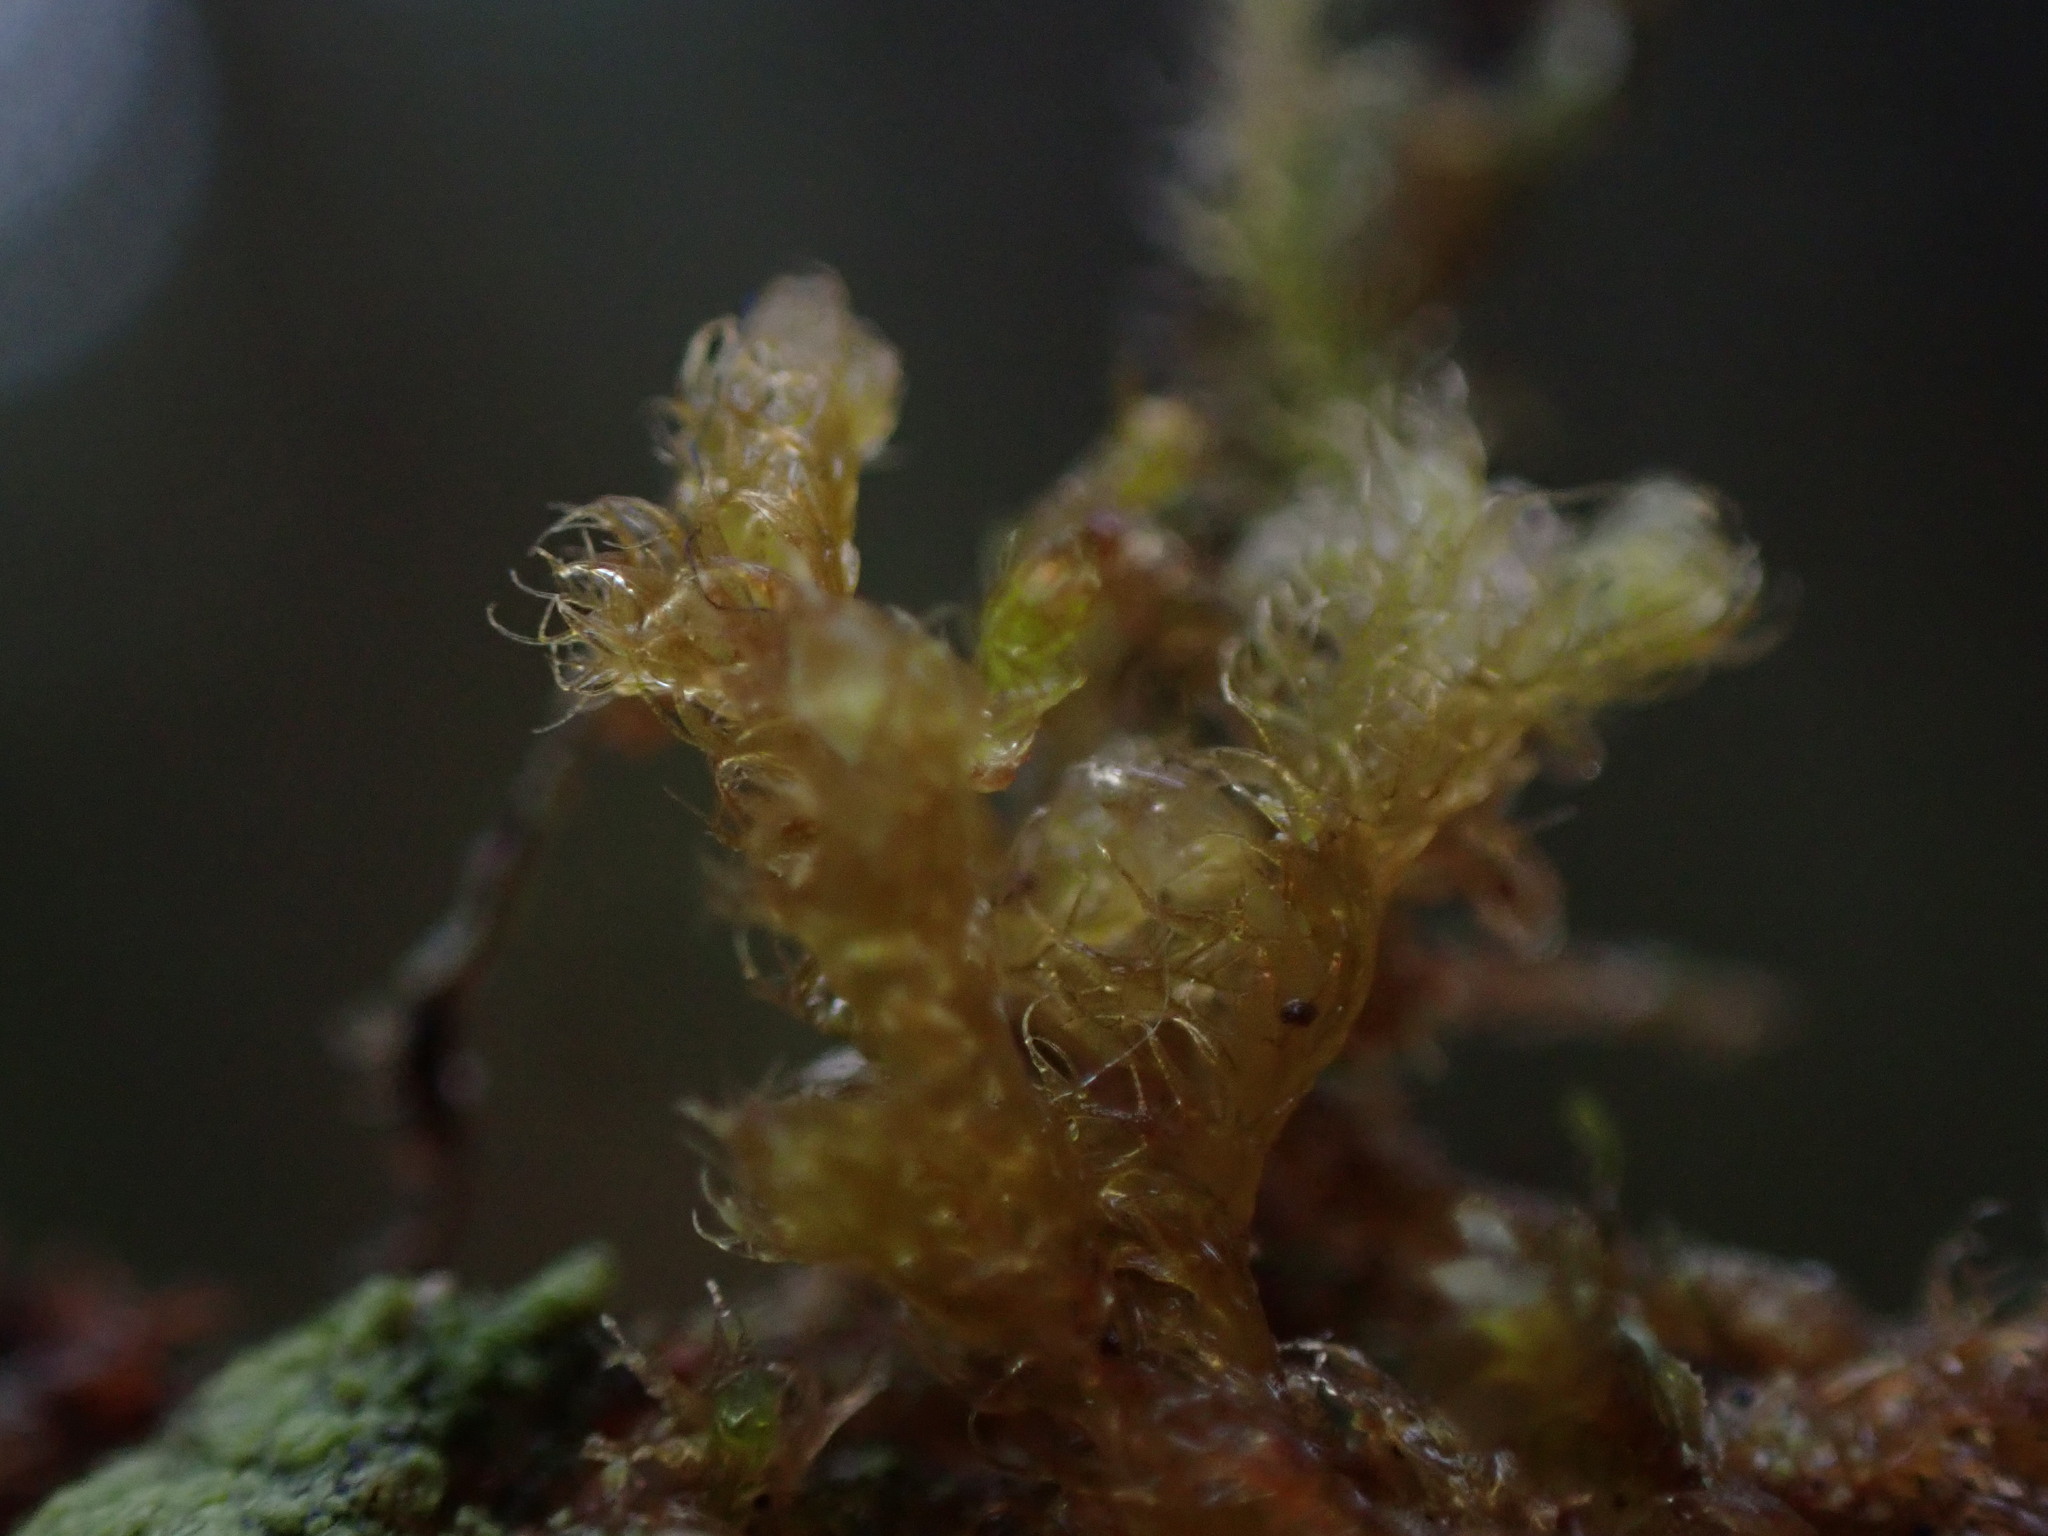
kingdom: Plantae
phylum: Marchantiophyta
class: Jungermanniopsida
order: Ptilidiales
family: Ptilidiaceae
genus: Ptilidium
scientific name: Ptilidium californicum
